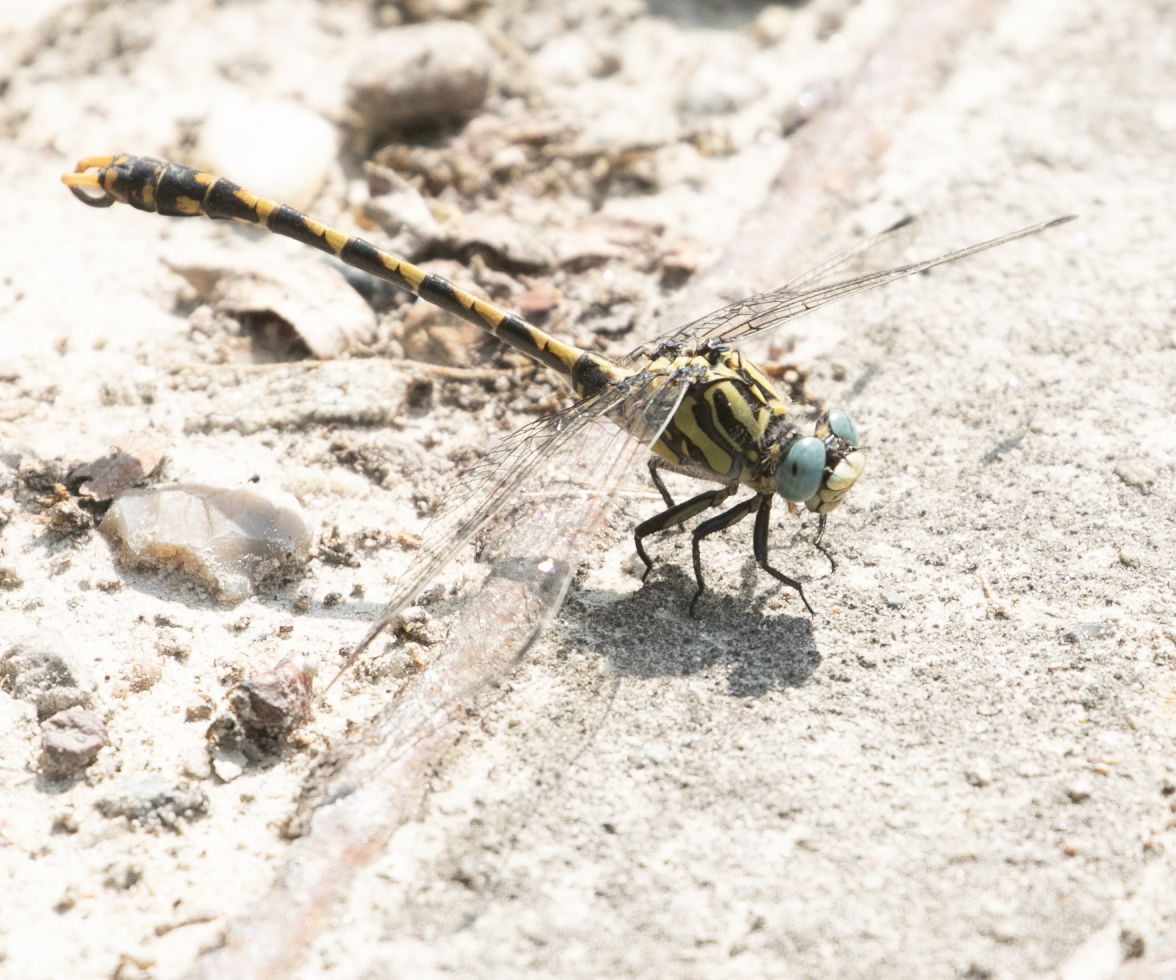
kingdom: Animalia
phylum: Arthropoda
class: Insecta
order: Odonata
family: Gomphidae
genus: Onychogomphus
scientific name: Onychogomphus uncatus
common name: Large pincertail
